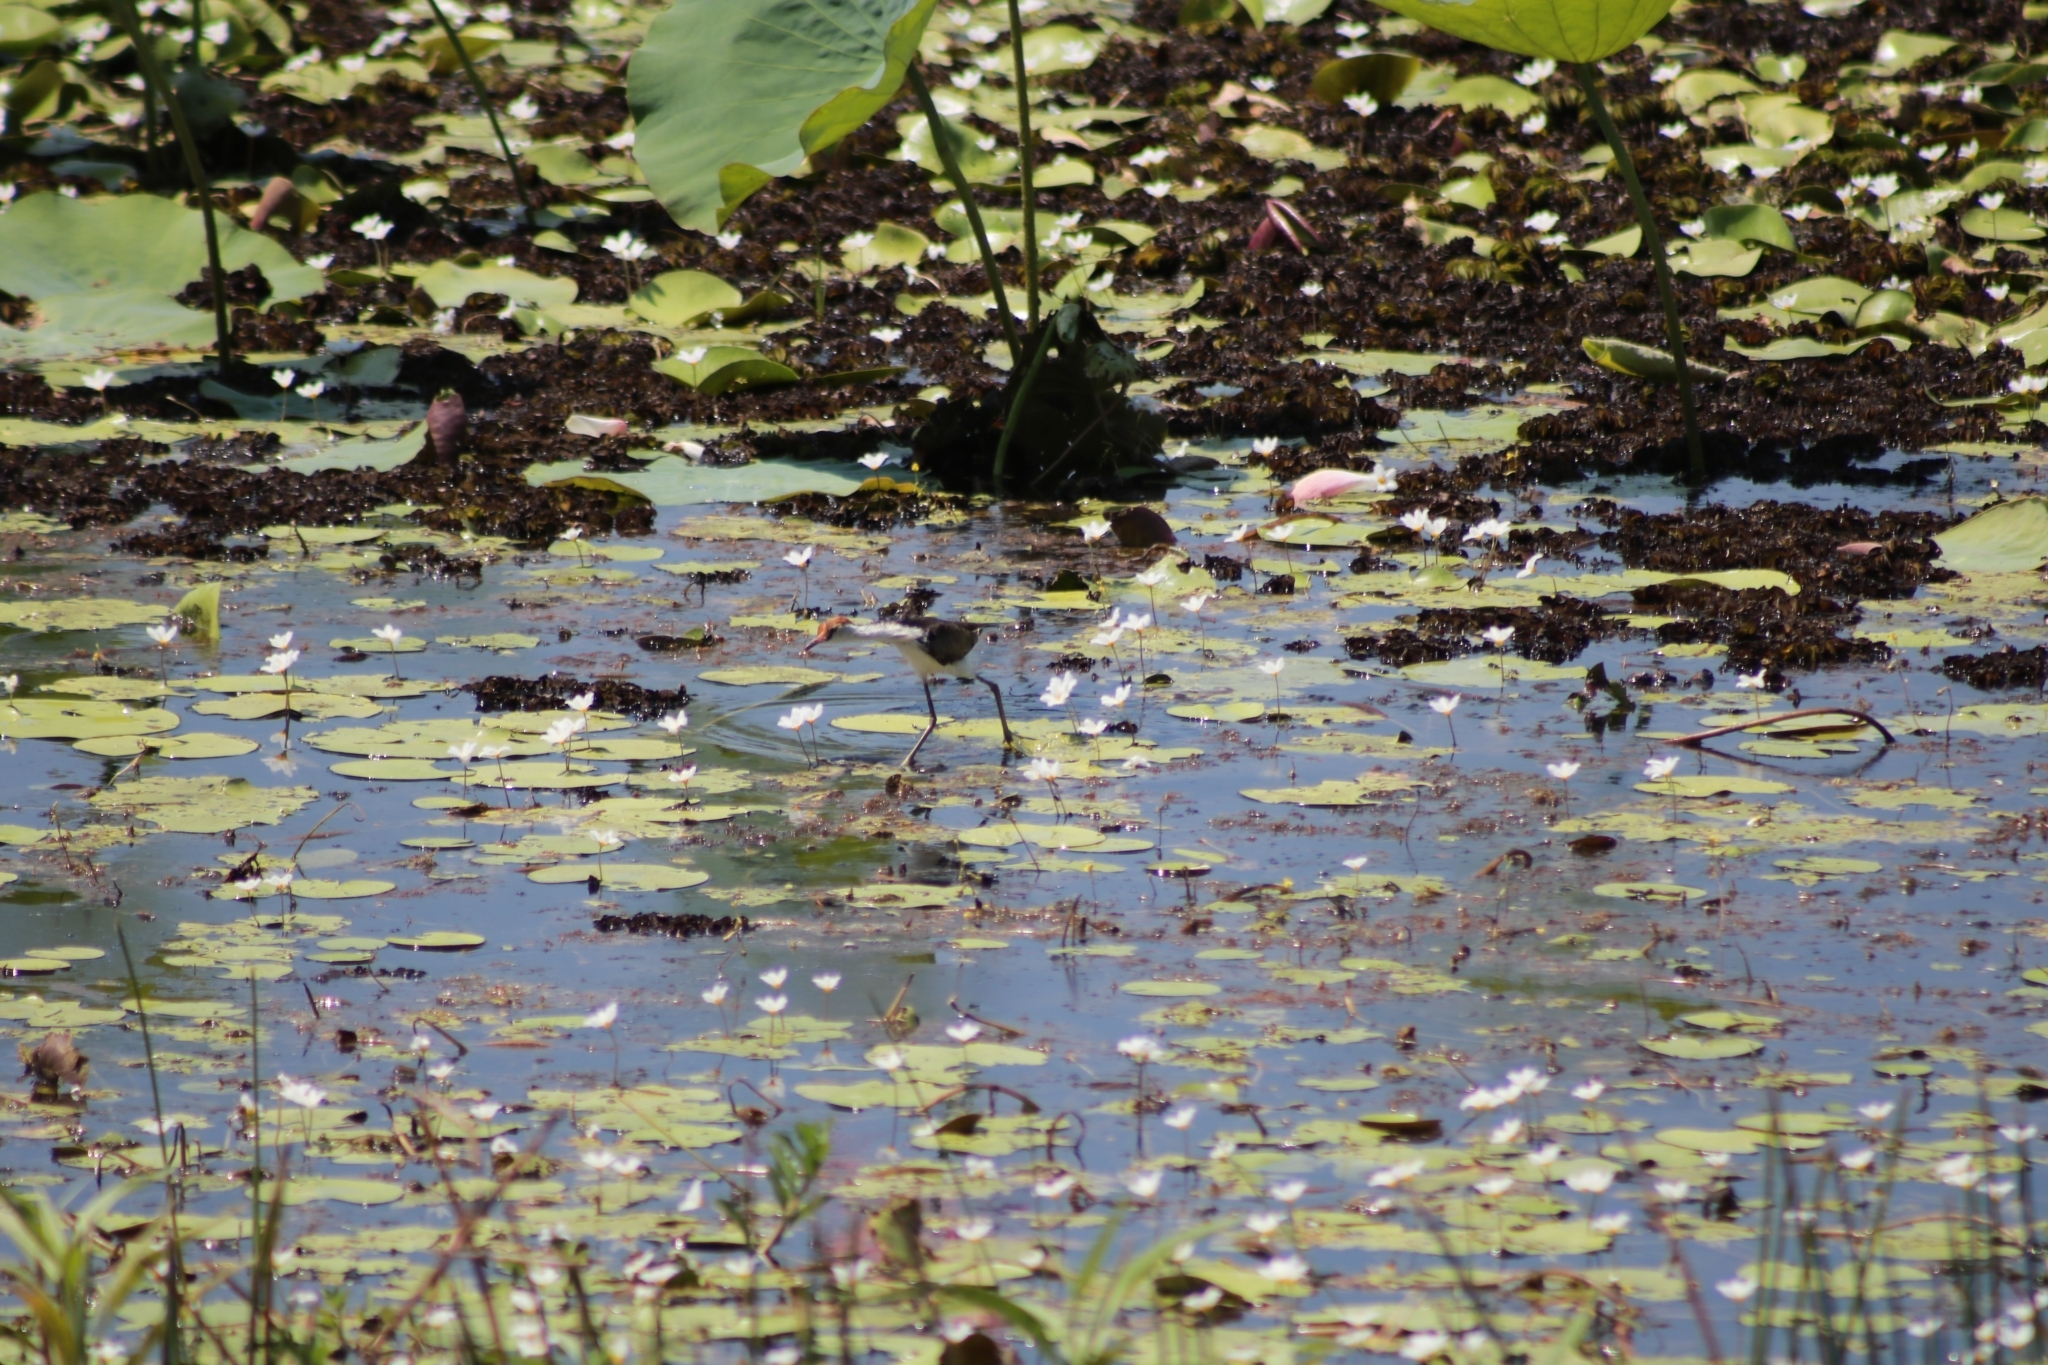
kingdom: Animalia
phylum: Chordata
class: Aves
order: Charadriiformes
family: Jacanidae
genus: Irediparra
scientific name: Irediparra gallinacea
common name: Comb-crested jacana
